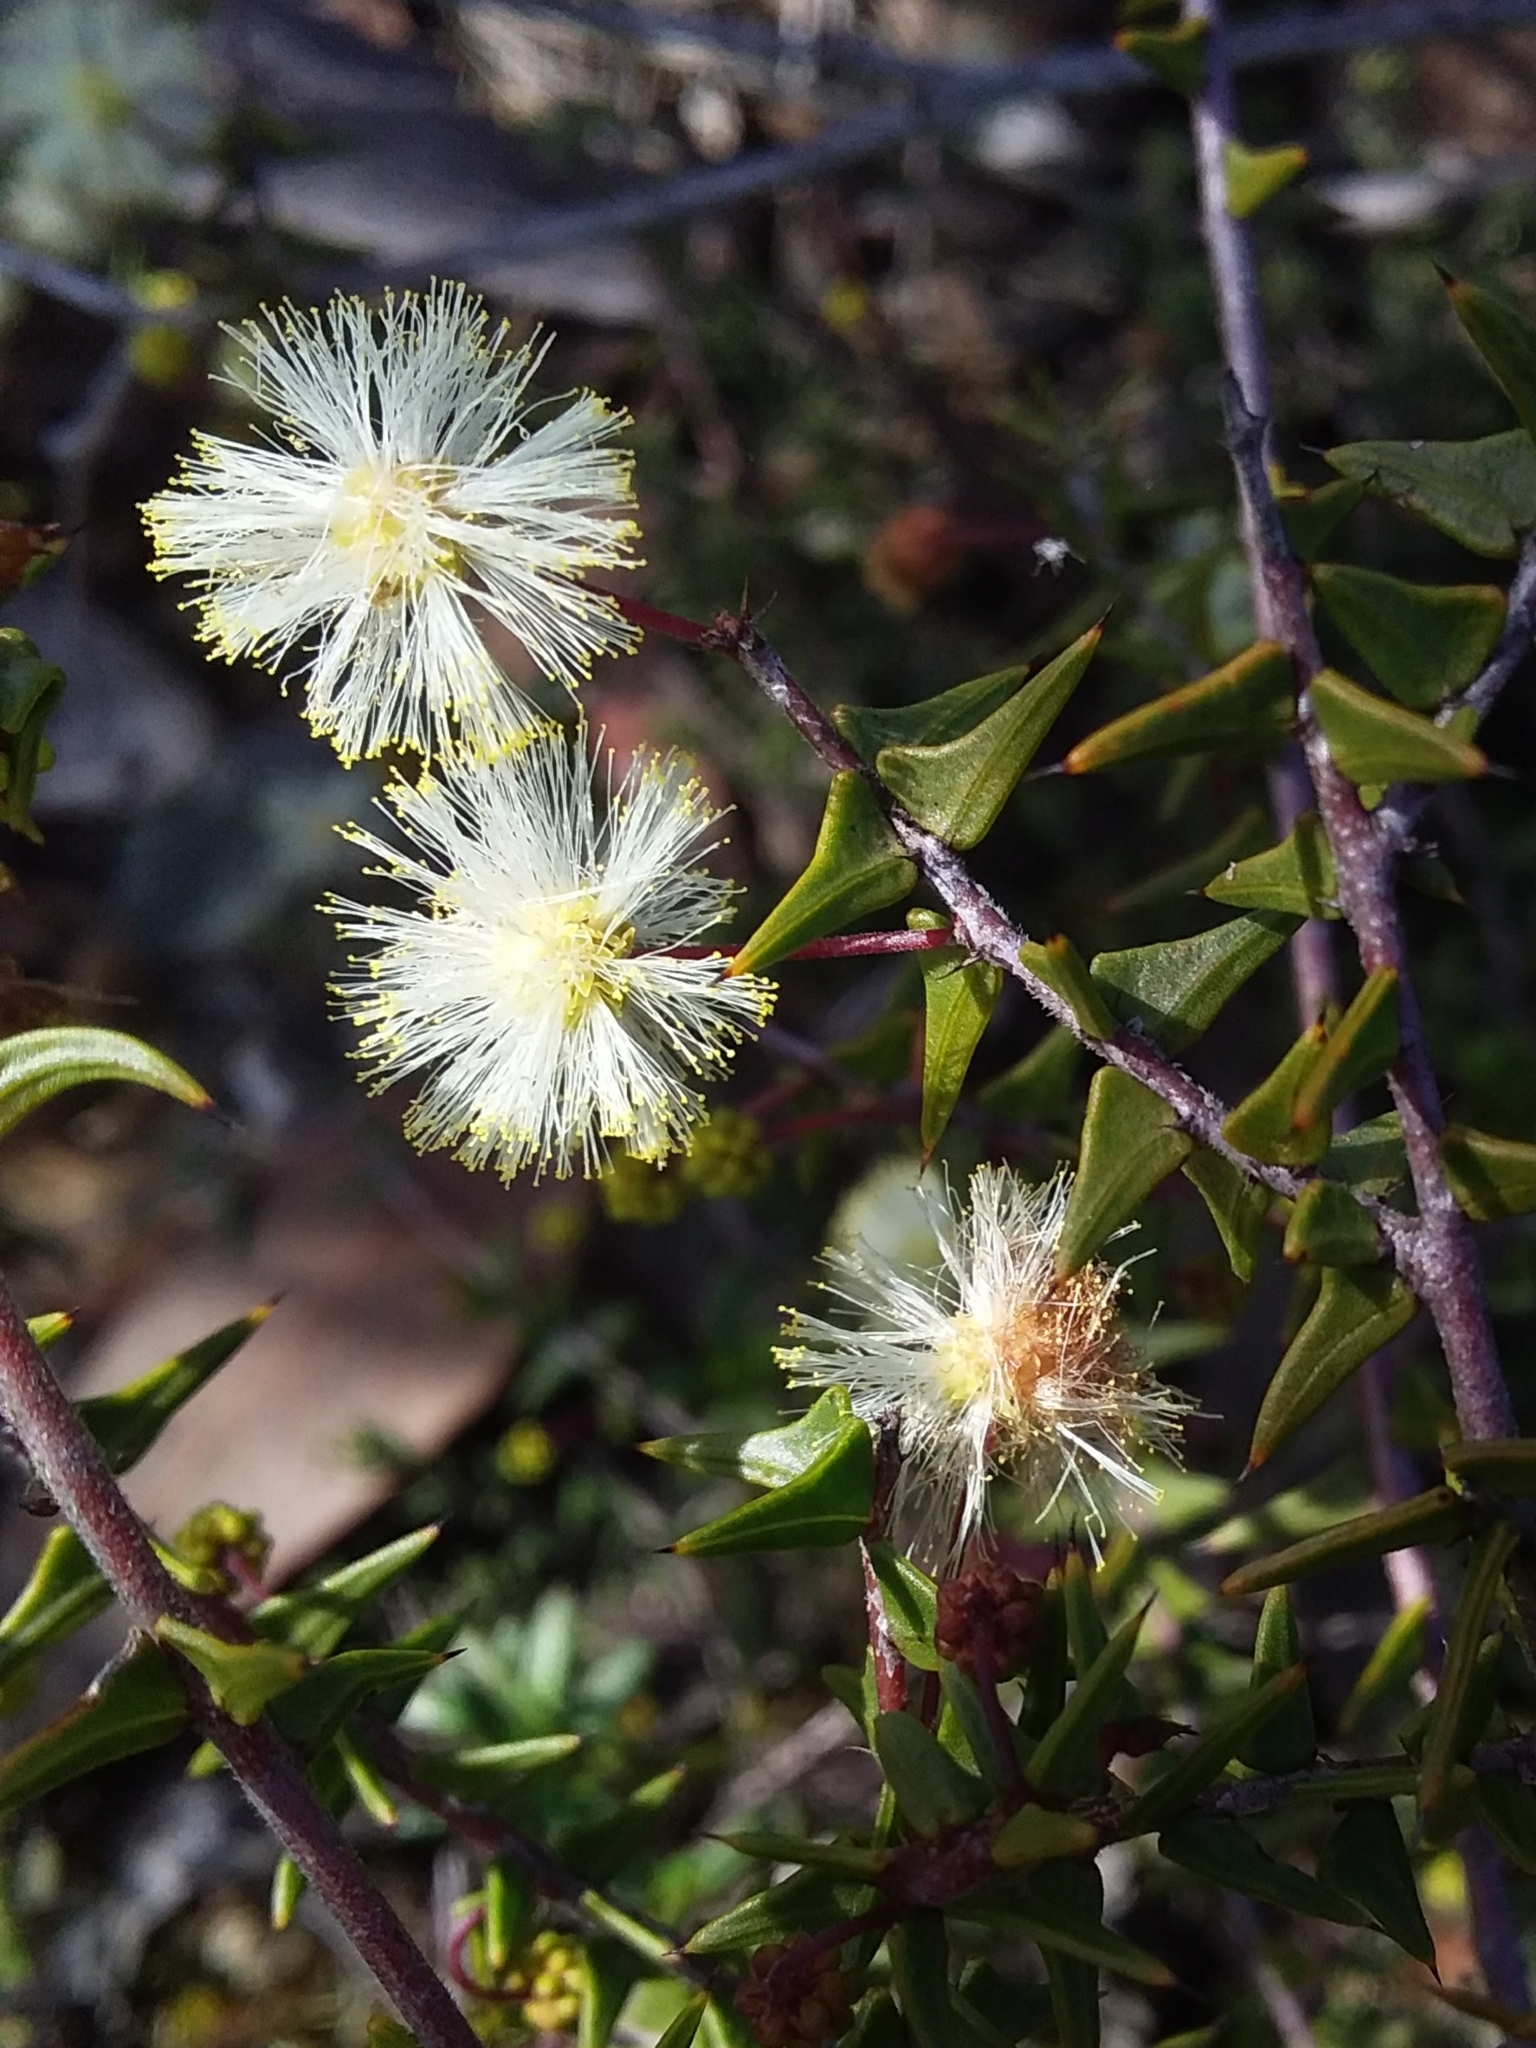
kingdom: Plantae
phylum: Tracheophyta
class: Magnoliopsida
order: Fabales
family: Fabaceae
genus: Acacia
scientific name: Acacia gunnii
